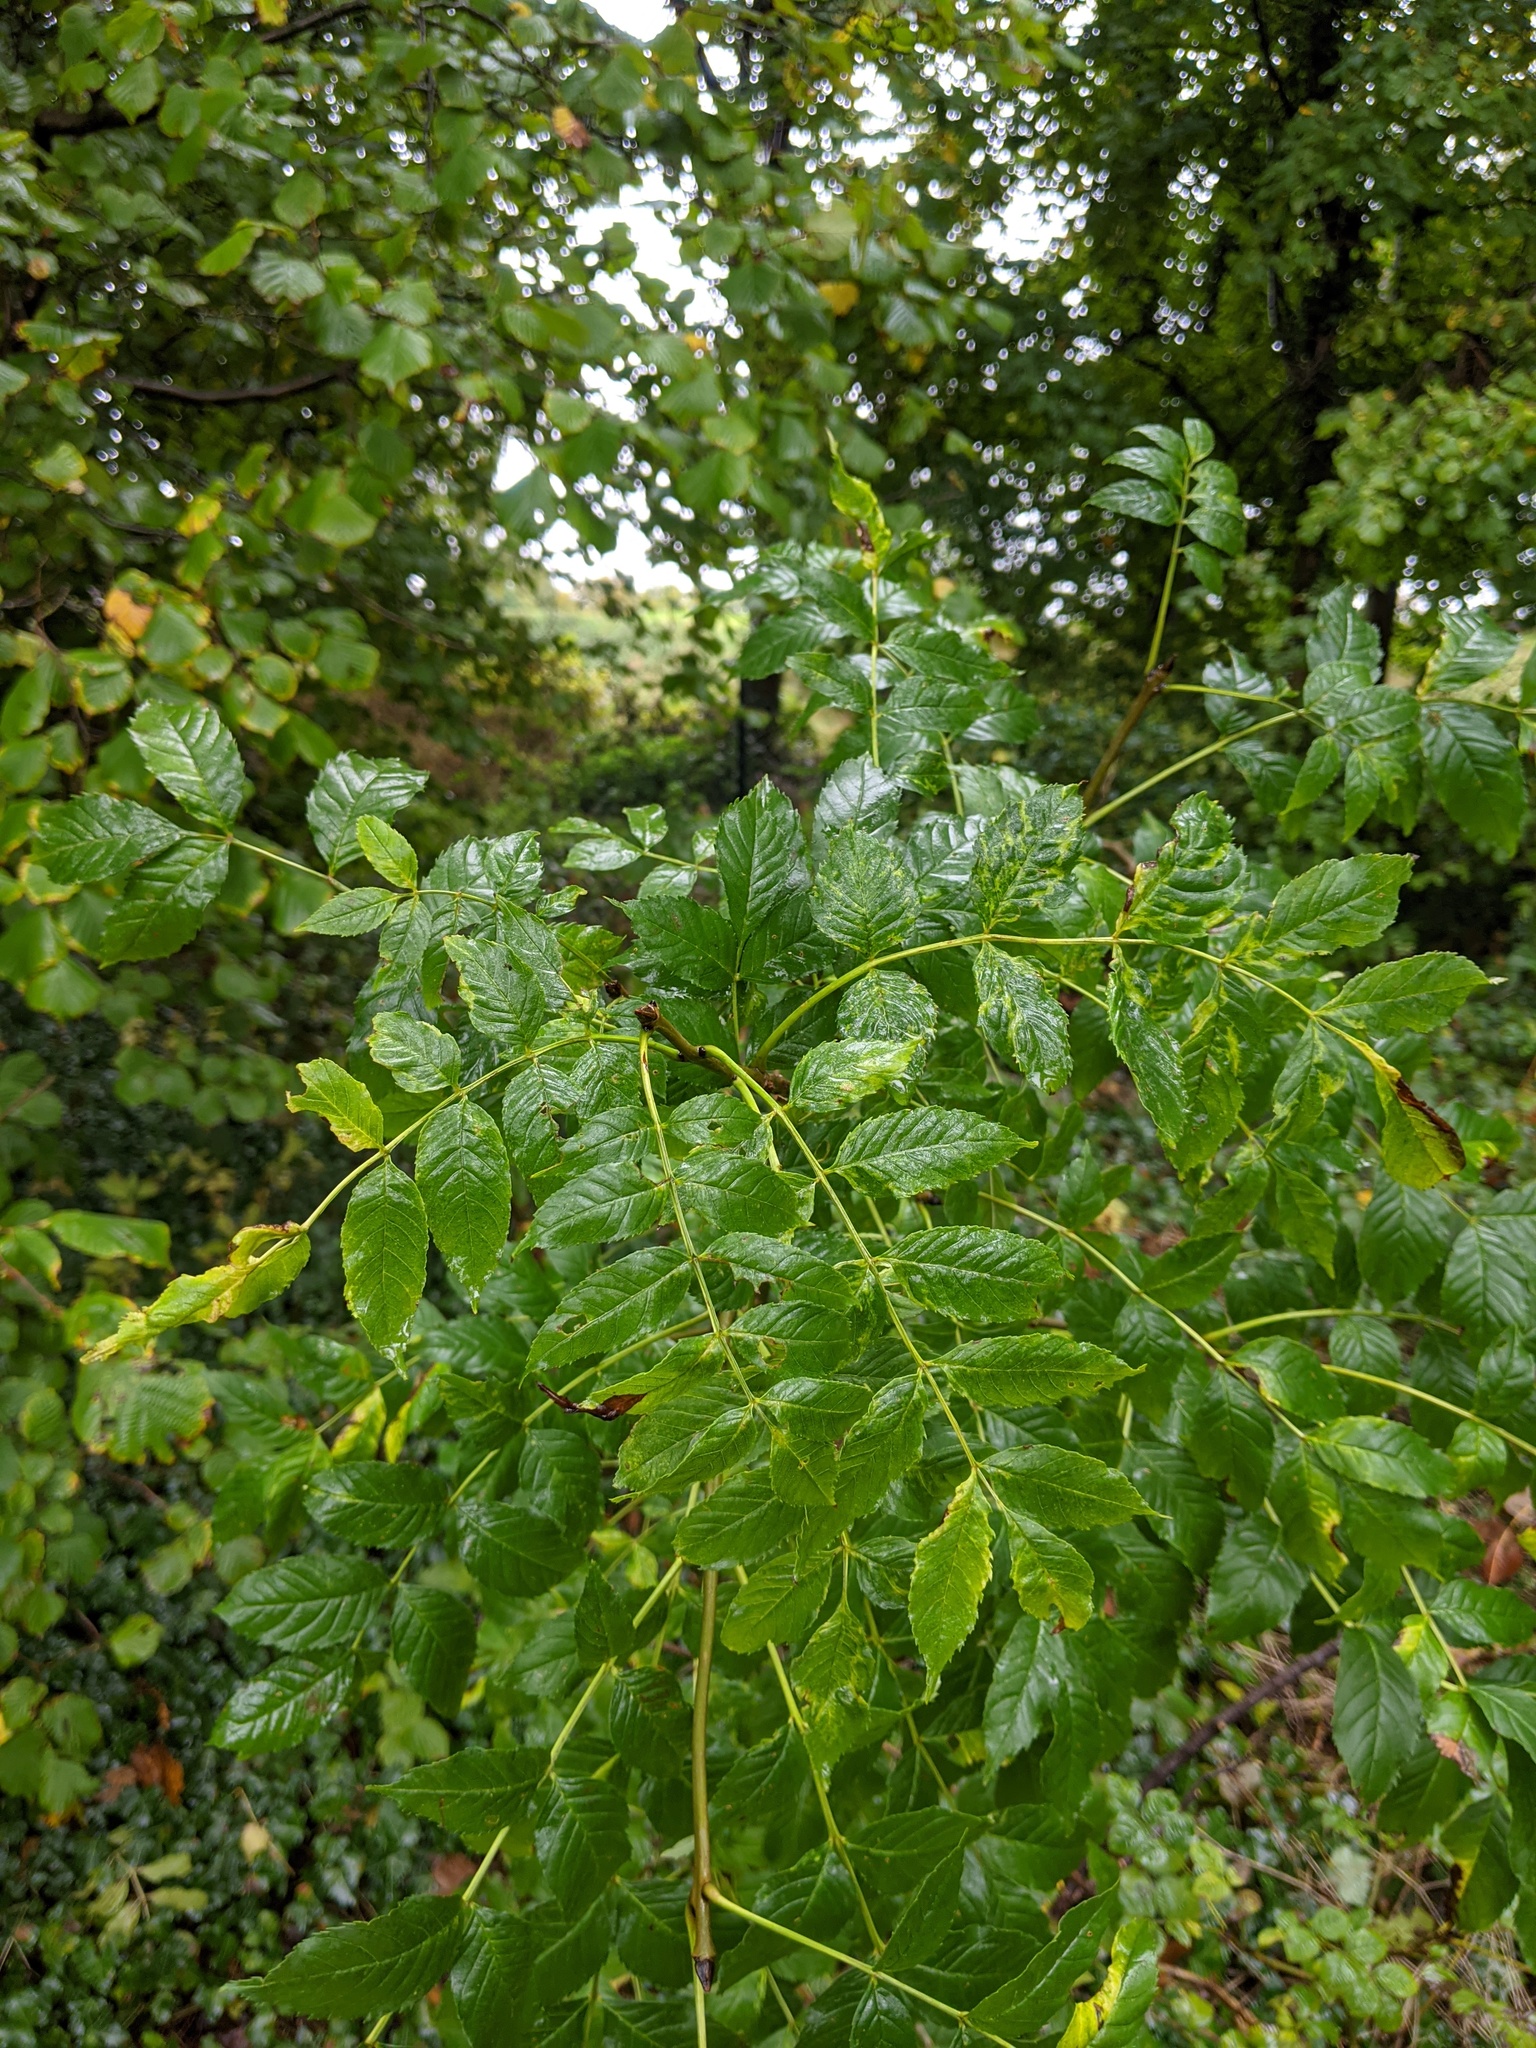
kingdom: Plantae
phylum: Tracheophyta
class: Magnoliopsida
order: Lamiales
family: Oleaceae
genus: Fraxinus
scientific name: Fraxinus excelsior
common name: European ash
